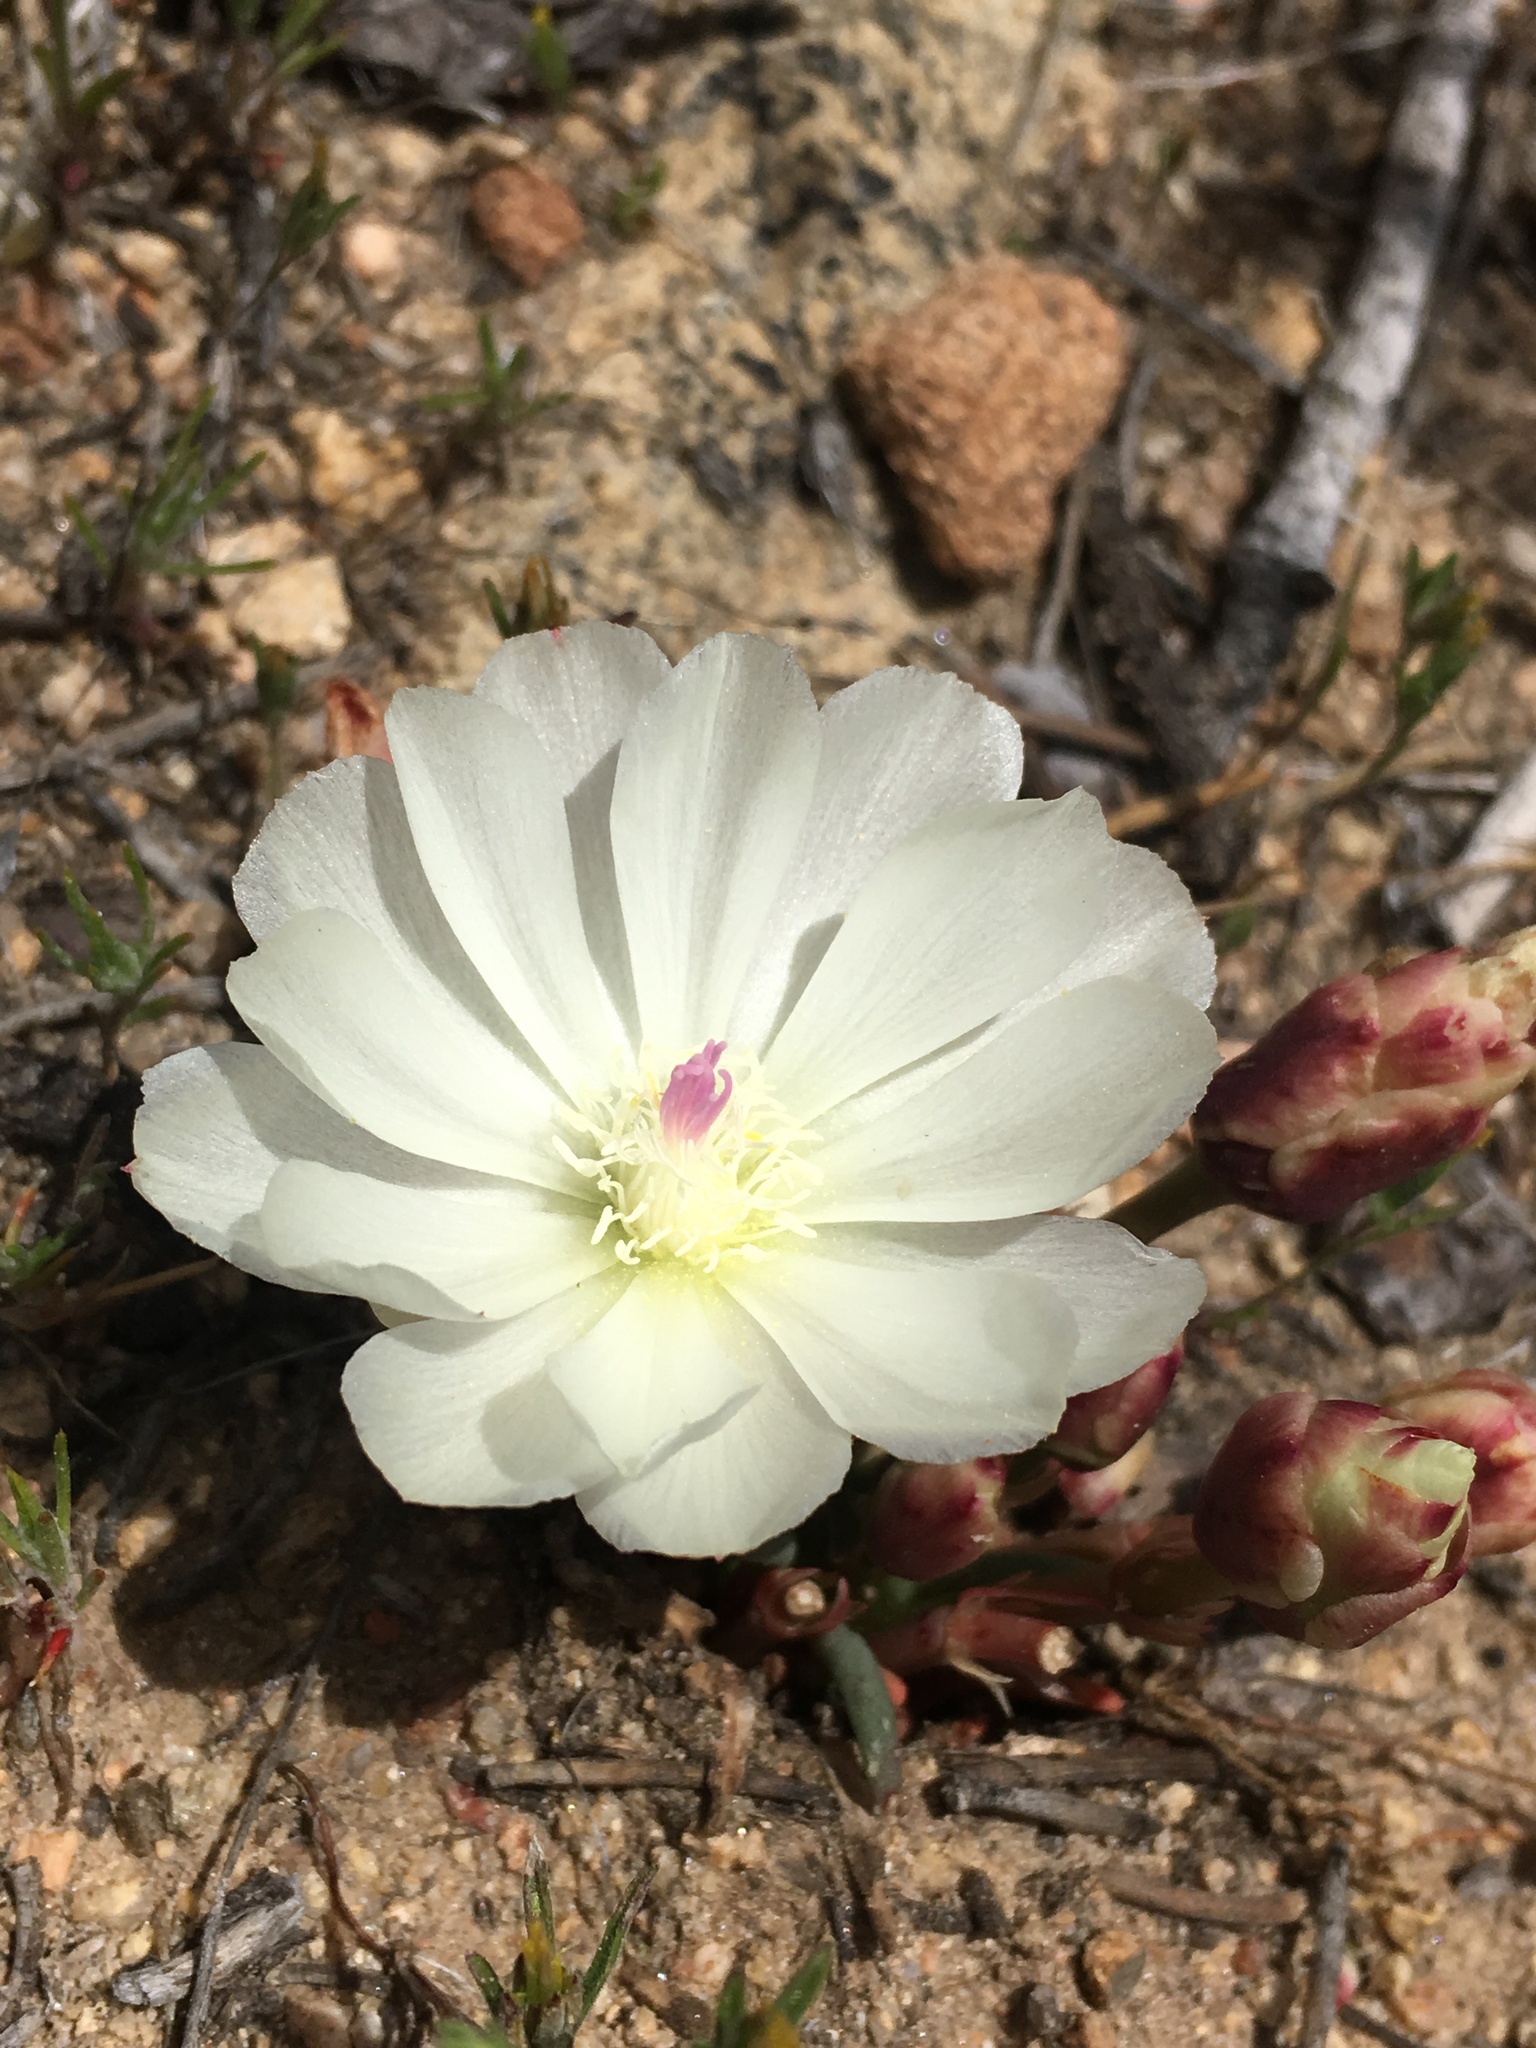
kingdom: Plantae
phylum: Tracheophyta
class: Magnoliopsida
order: Caryophyllales
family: Montiaceae
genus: Lewisia
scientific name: Lewisia rediviva
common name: Bitter-root
